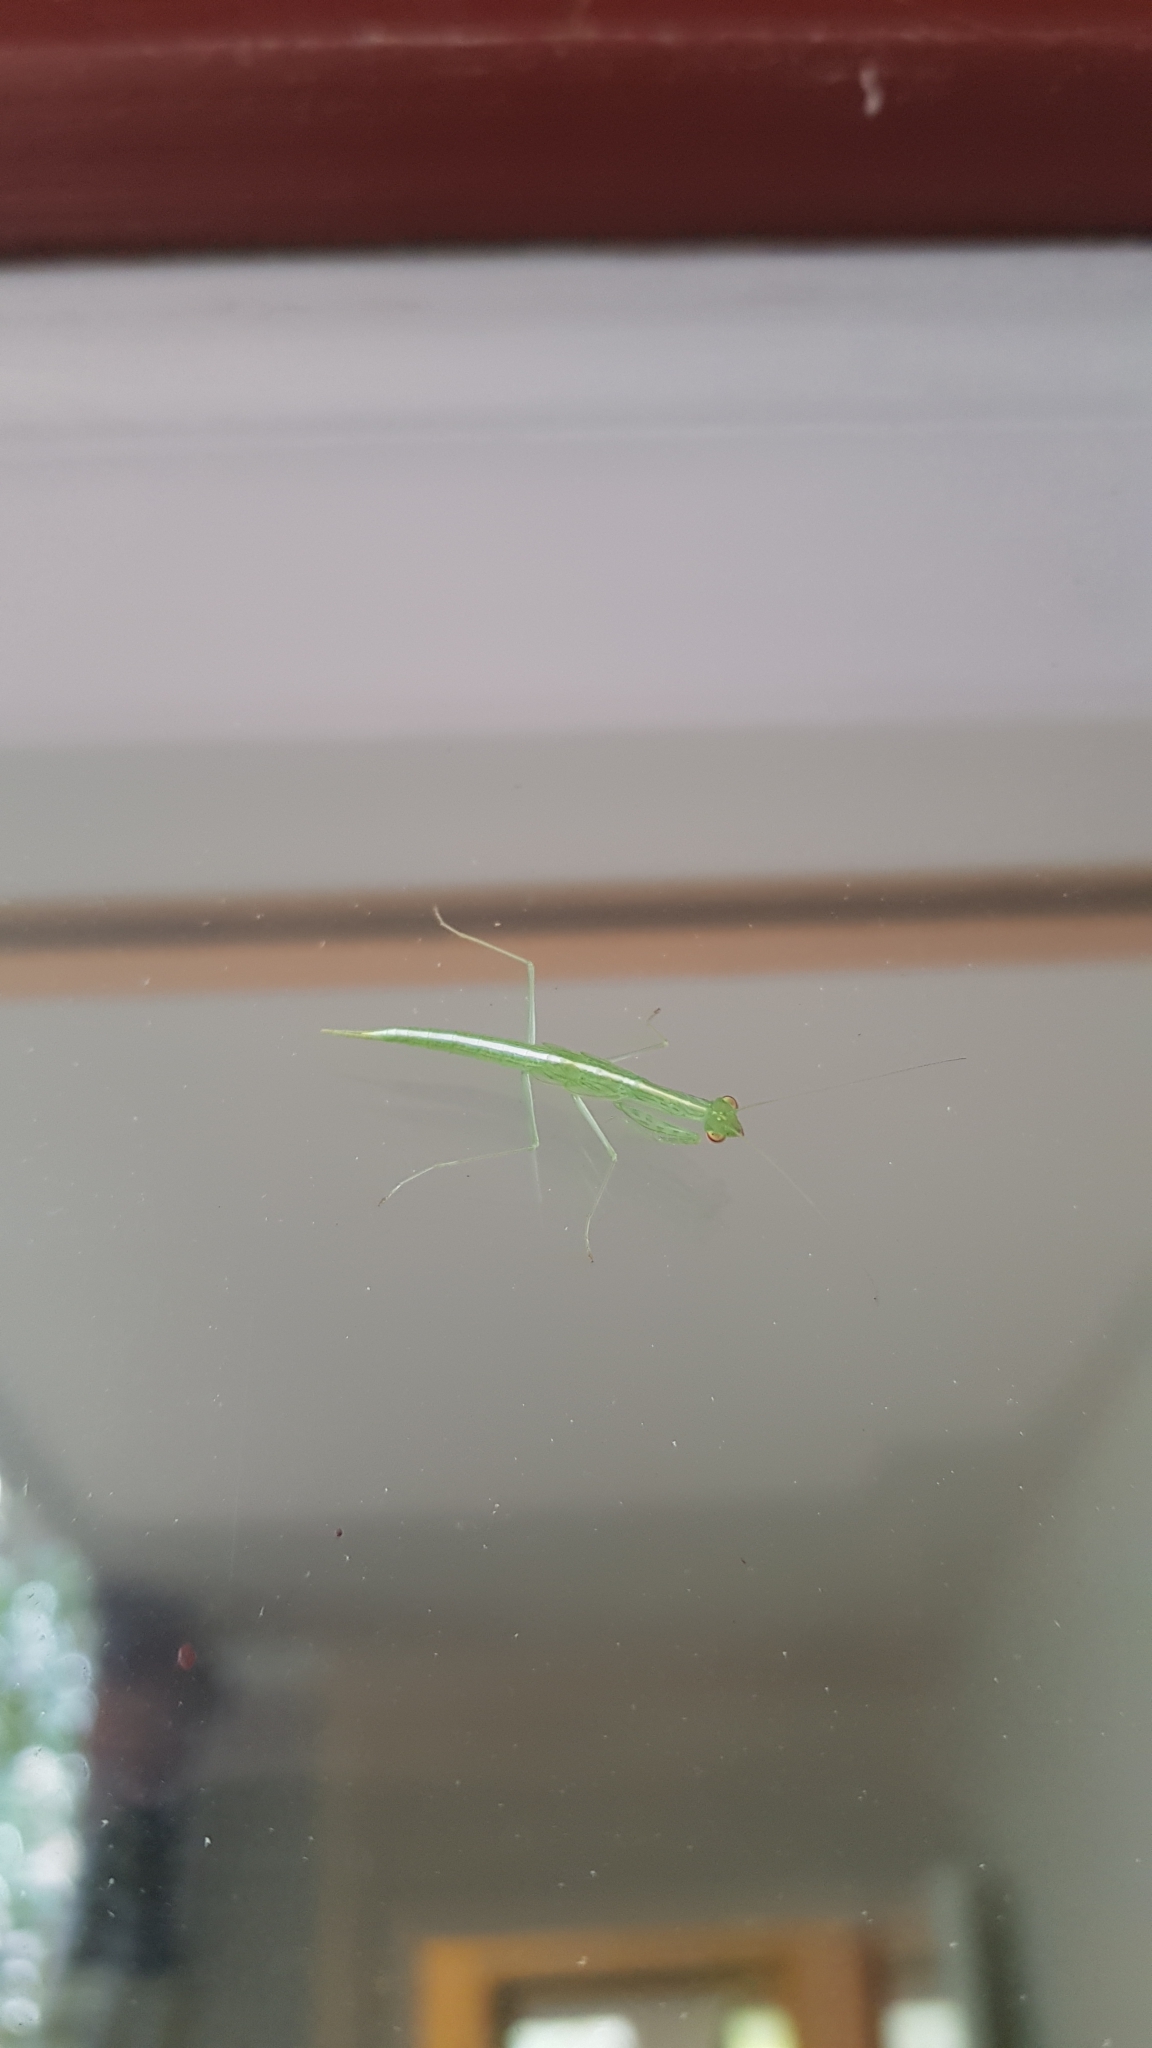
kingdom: Animalia
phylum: Arthropoda
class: Insecta
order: Mantodea
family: Nanomantidae
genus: Kongobatha
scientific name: Kongobatha diademata
